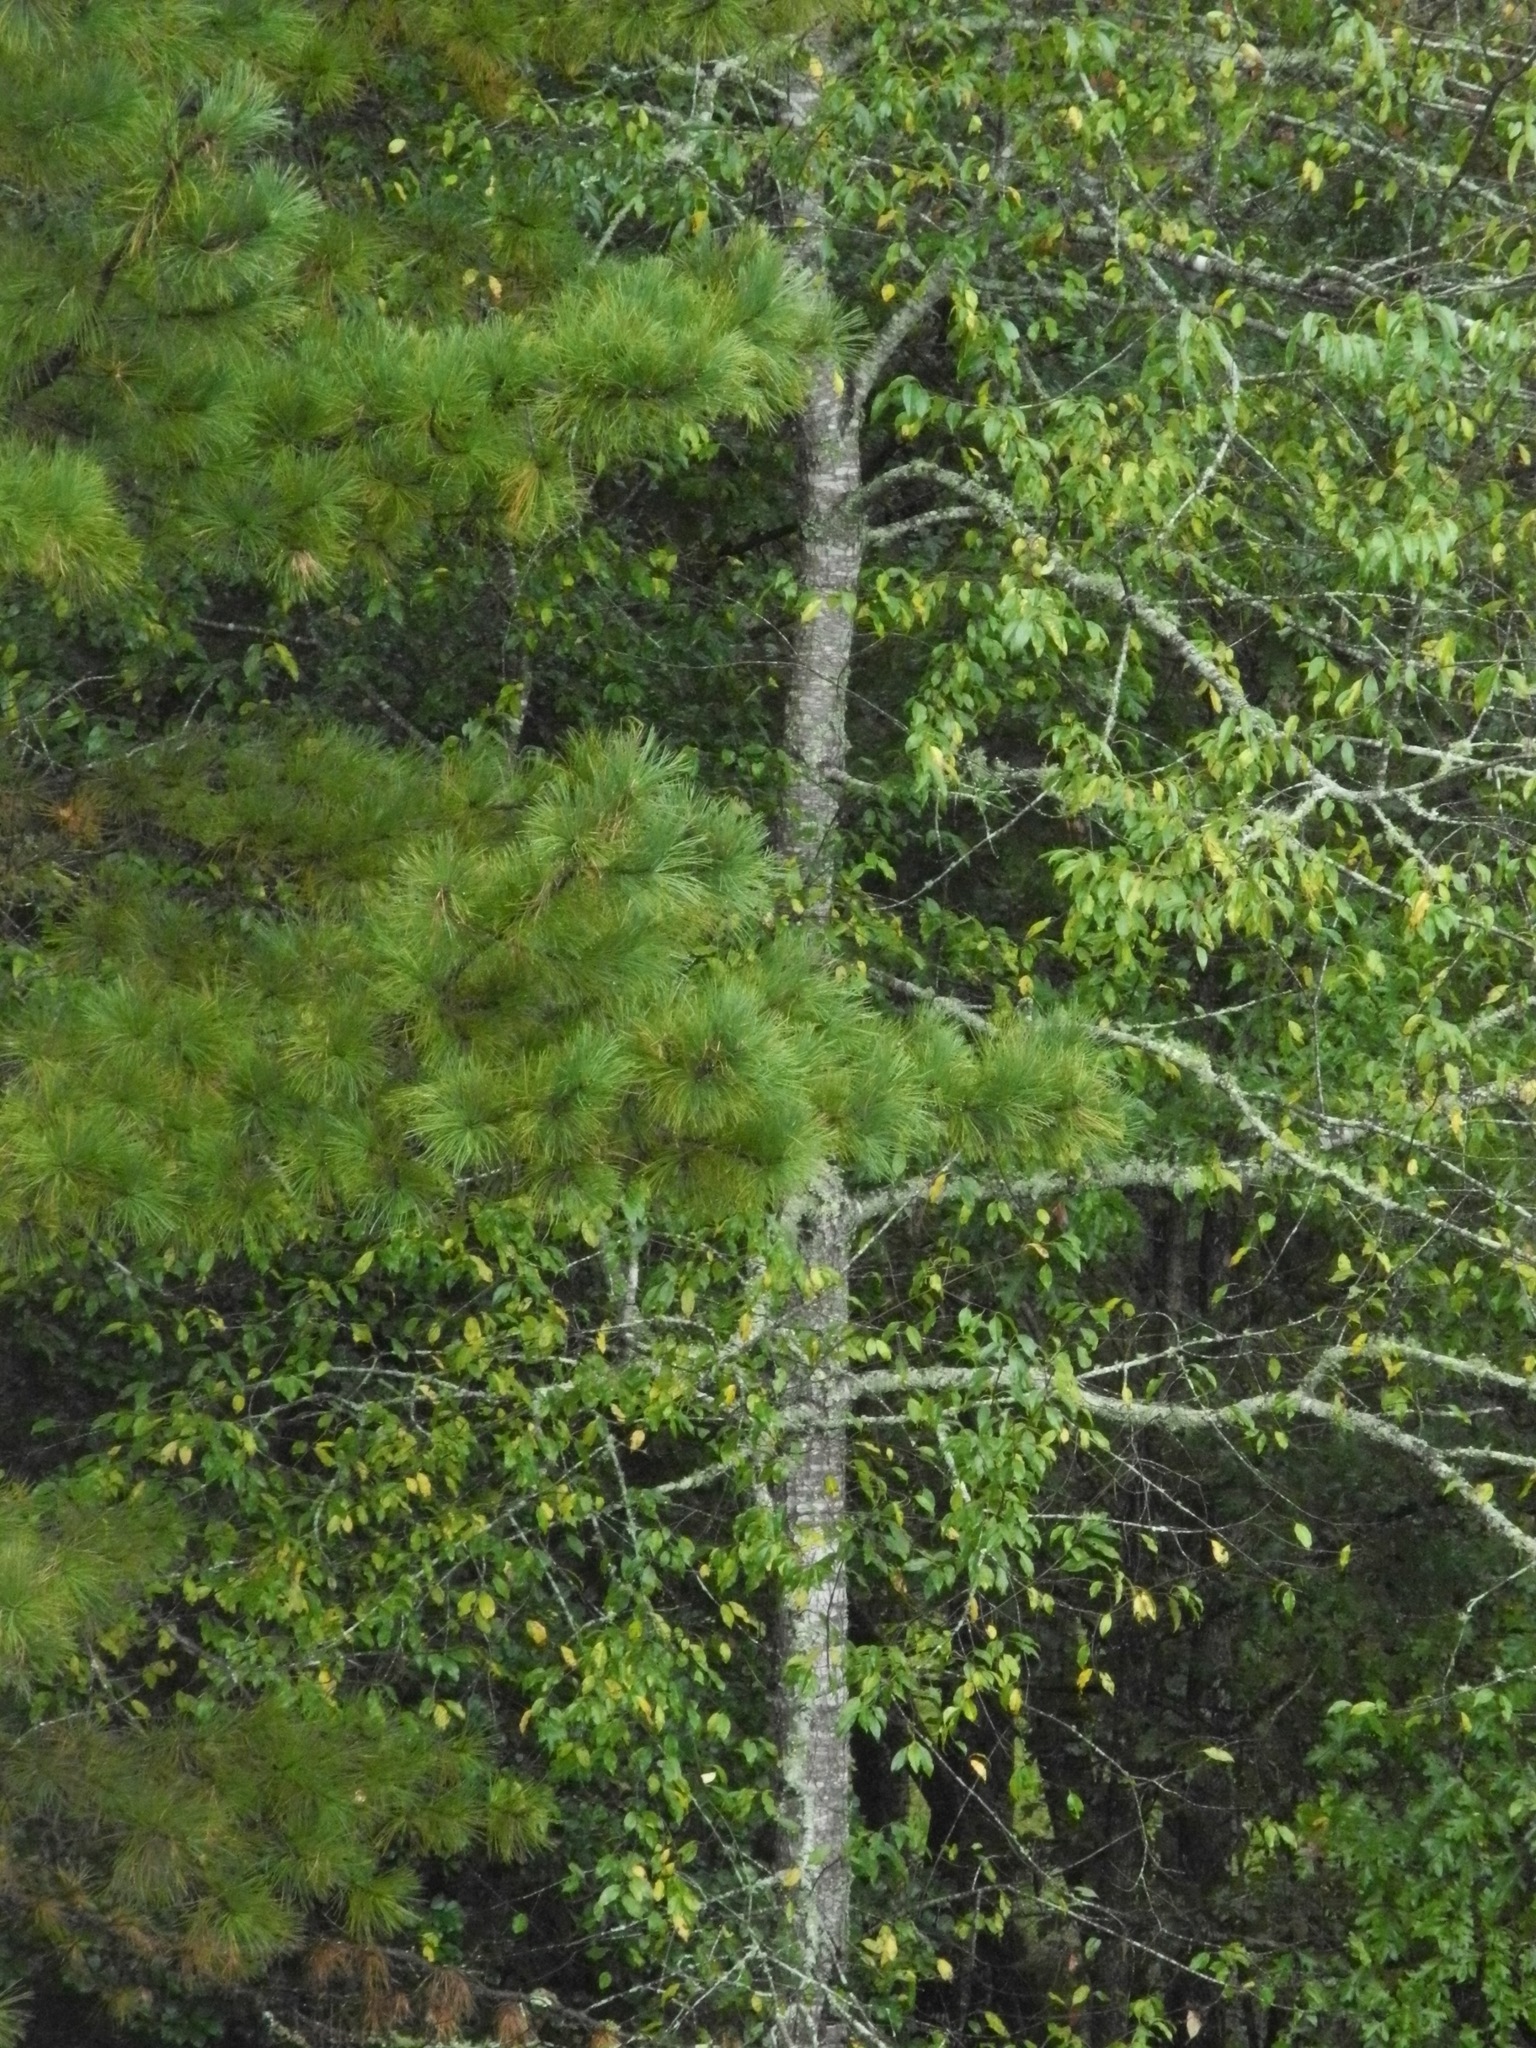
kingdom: Plantae
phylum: Tracheophyta
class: Magnoliopsida
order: Rosales
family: Rosaceae
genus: Prunus
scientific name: Prunus serotina
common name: Black cherry
